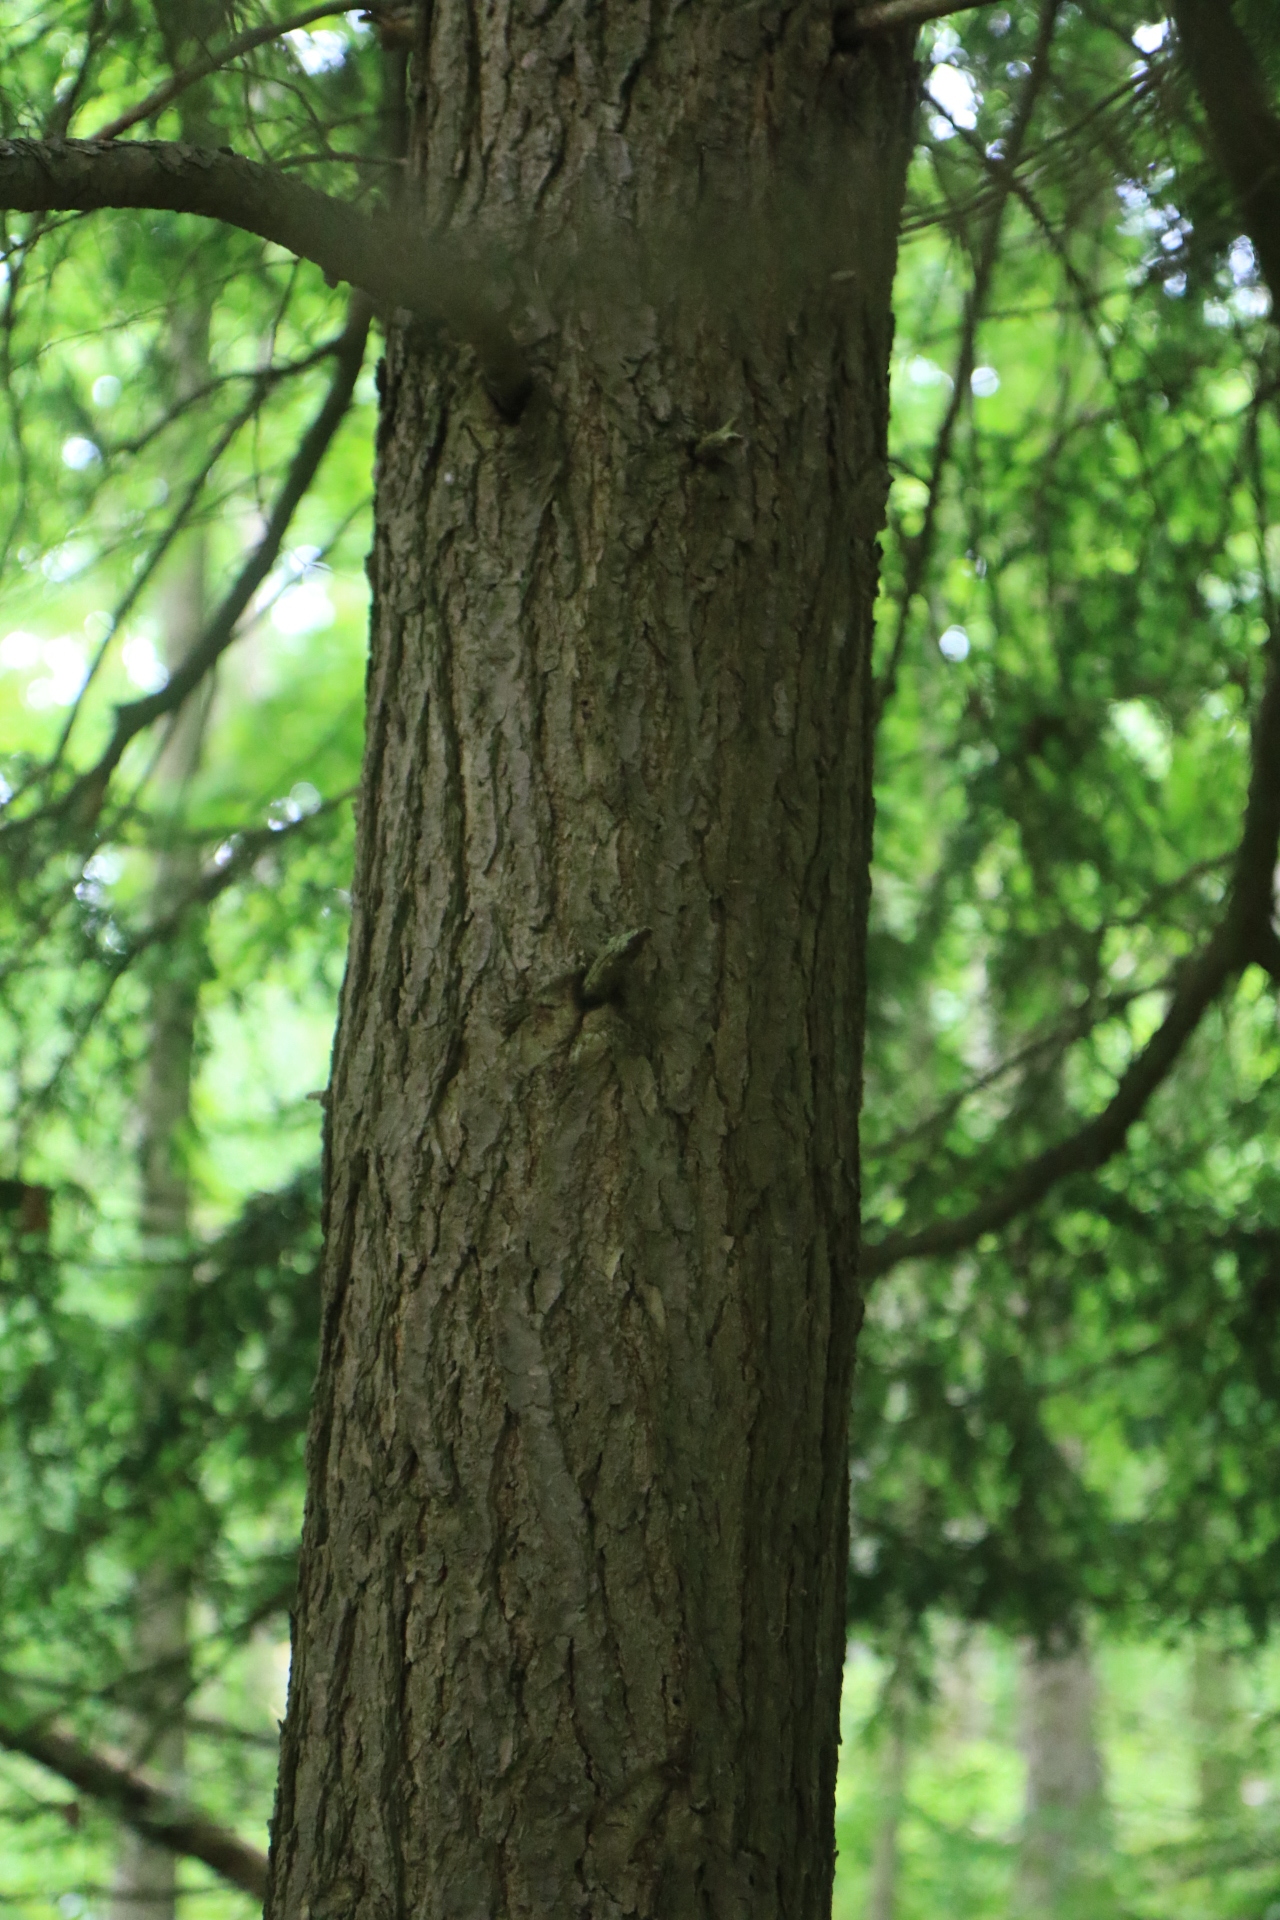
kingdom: Plantae
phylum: Tracheophyta
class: Pinopsida
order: Pinales
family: Pinaceae
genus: Tsuga
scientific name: Tsuga canadensis
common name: Eastern hemlock
